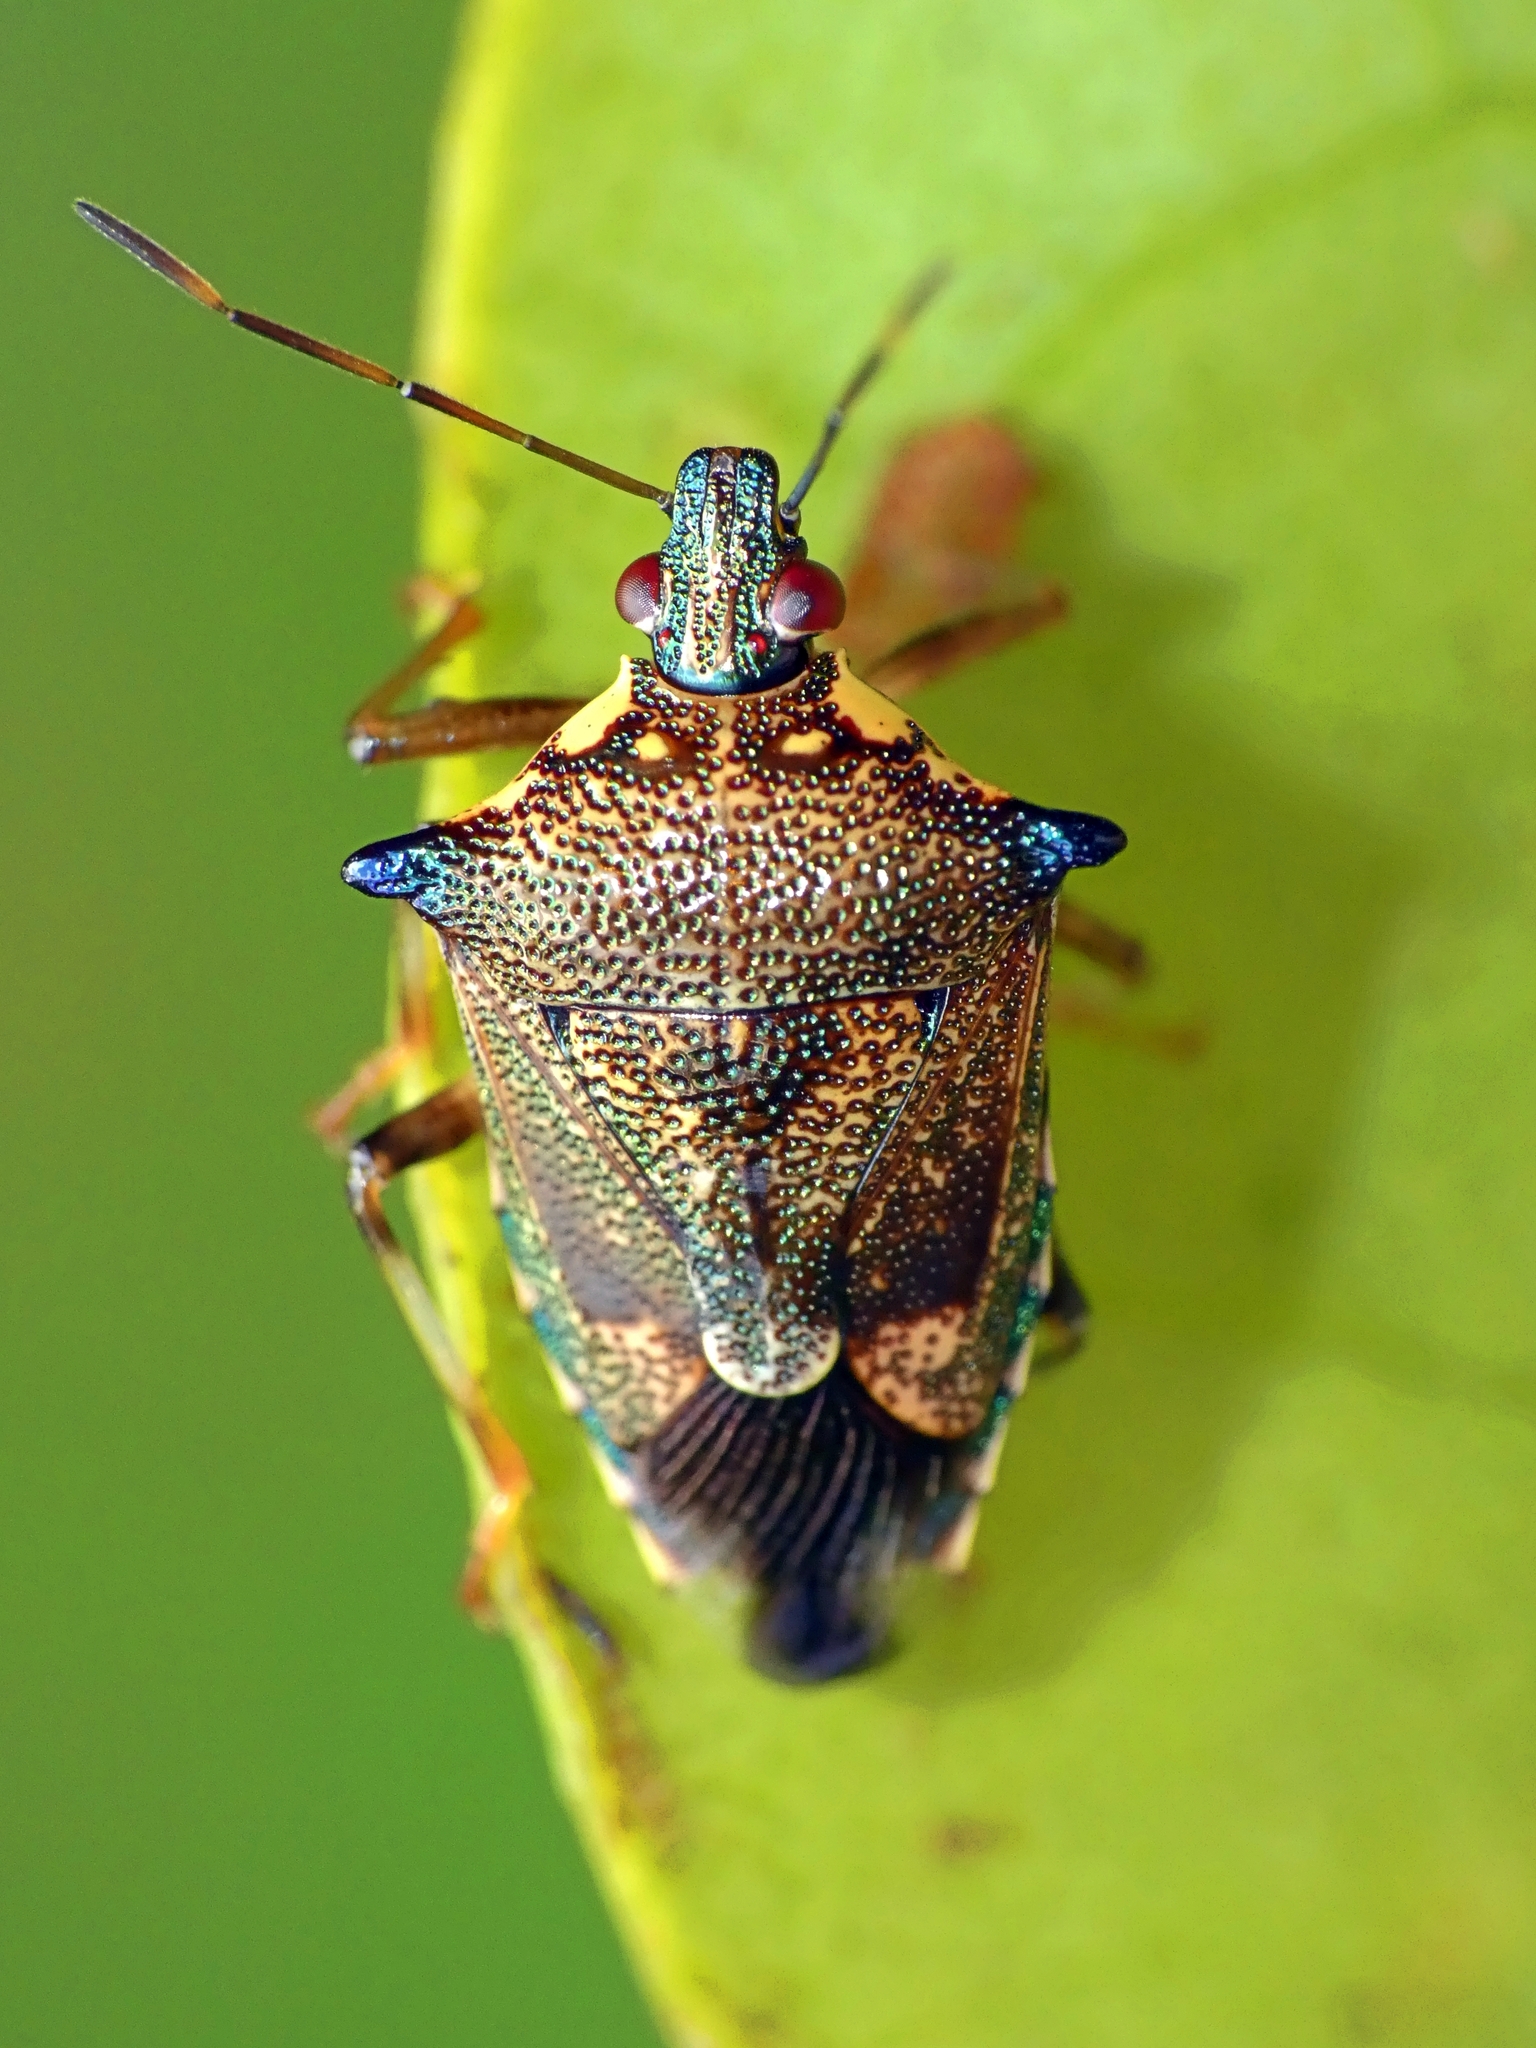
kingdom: Animalia
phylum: Arthropoda
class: Insecta
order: Hemiptera
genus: Montrouzierellus
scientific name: Montrouzierellus
